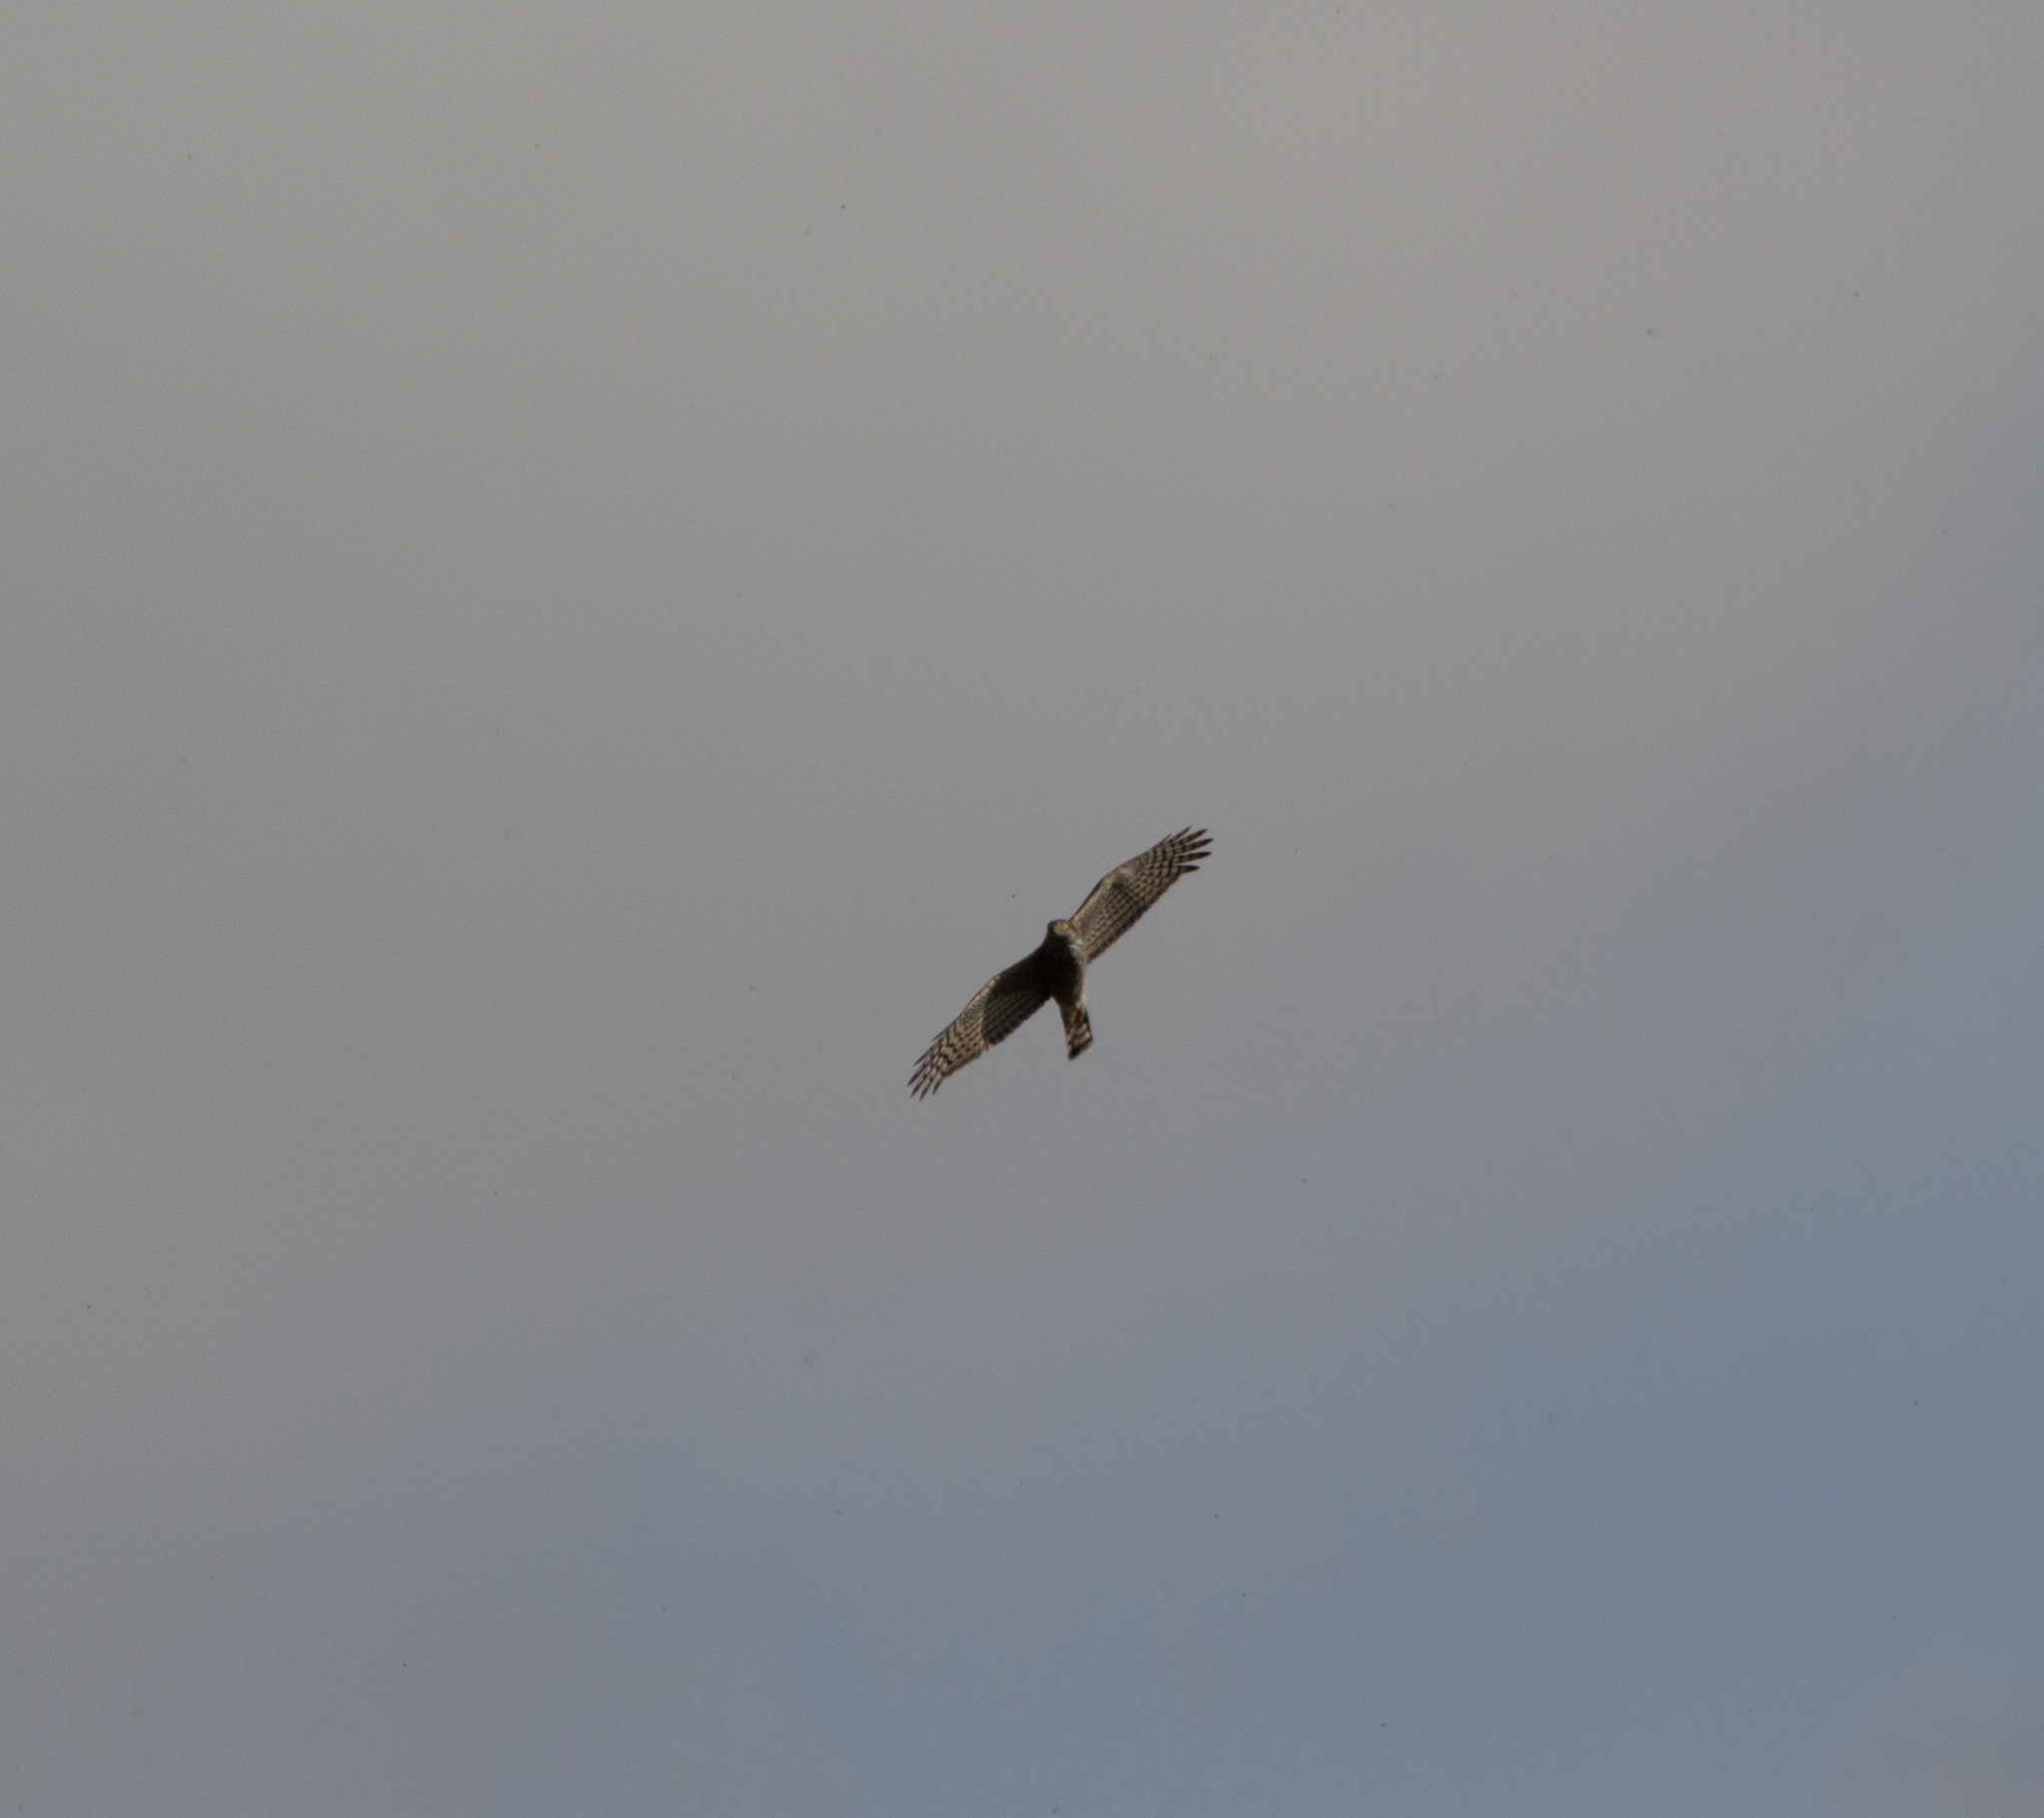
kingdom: Animalia
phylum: Chordata
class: Aves
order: Accipitriformes
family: Accipitridae
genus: Accipiter
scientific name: Accipiter nisus
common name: Eurasian sparrowhawk
